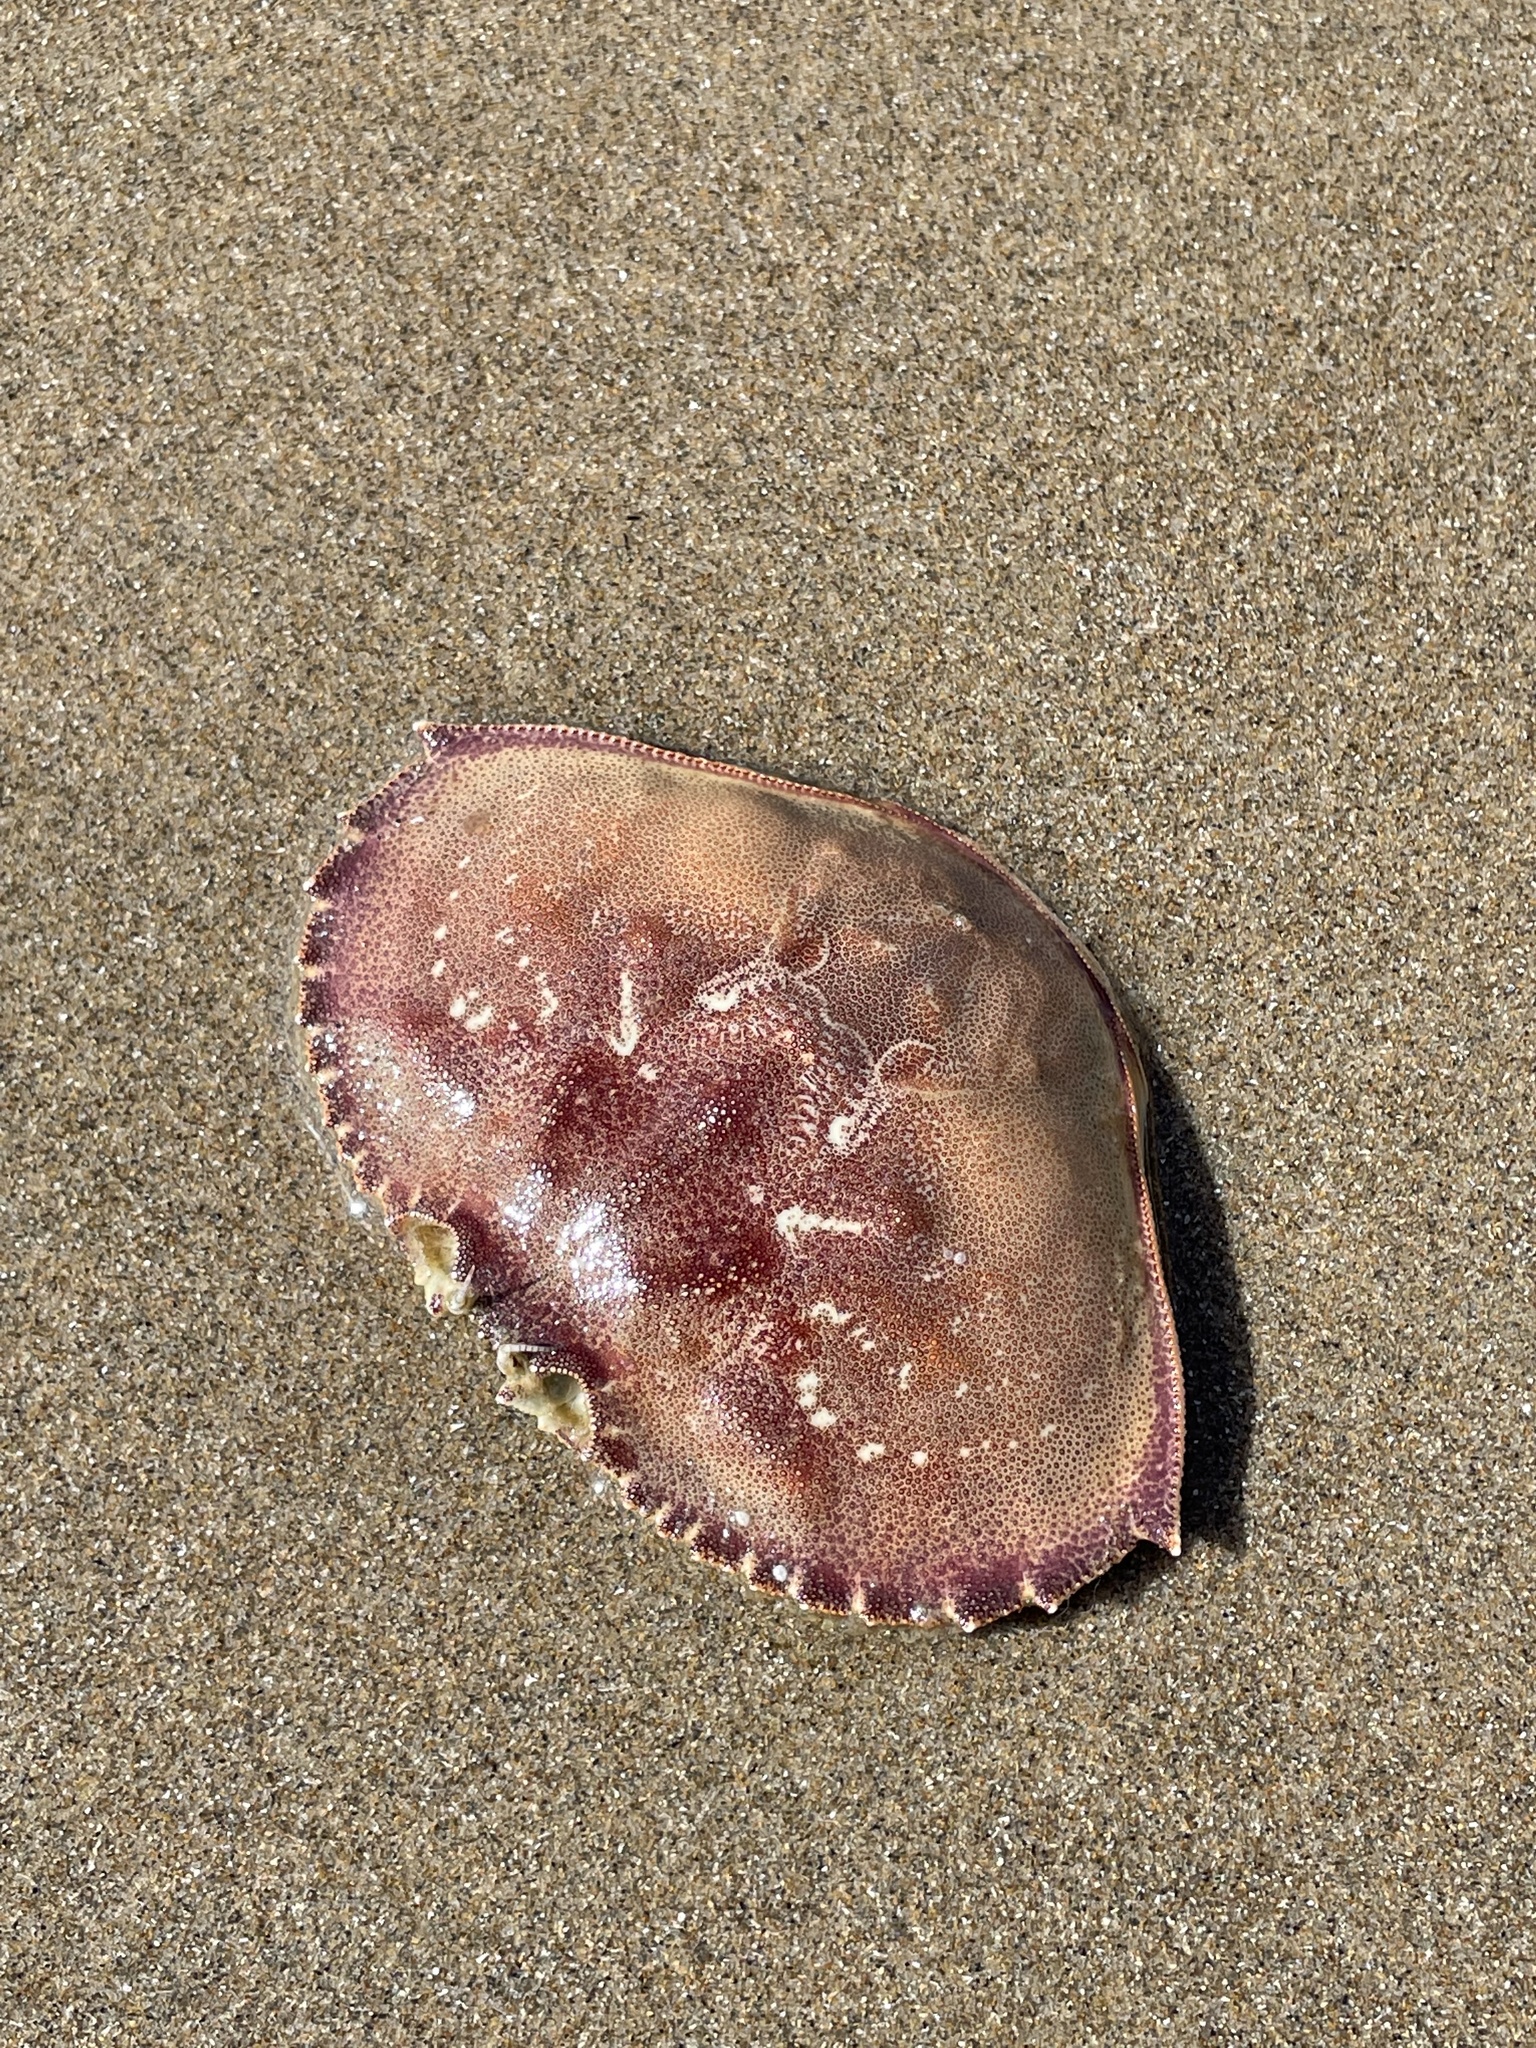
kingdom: Animalia
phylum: Arthropoda
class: Malacostraca
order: Decapoda
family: Cancridae
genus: Metacarcinus
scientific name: Metacarcinus magister
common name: Californian crab
